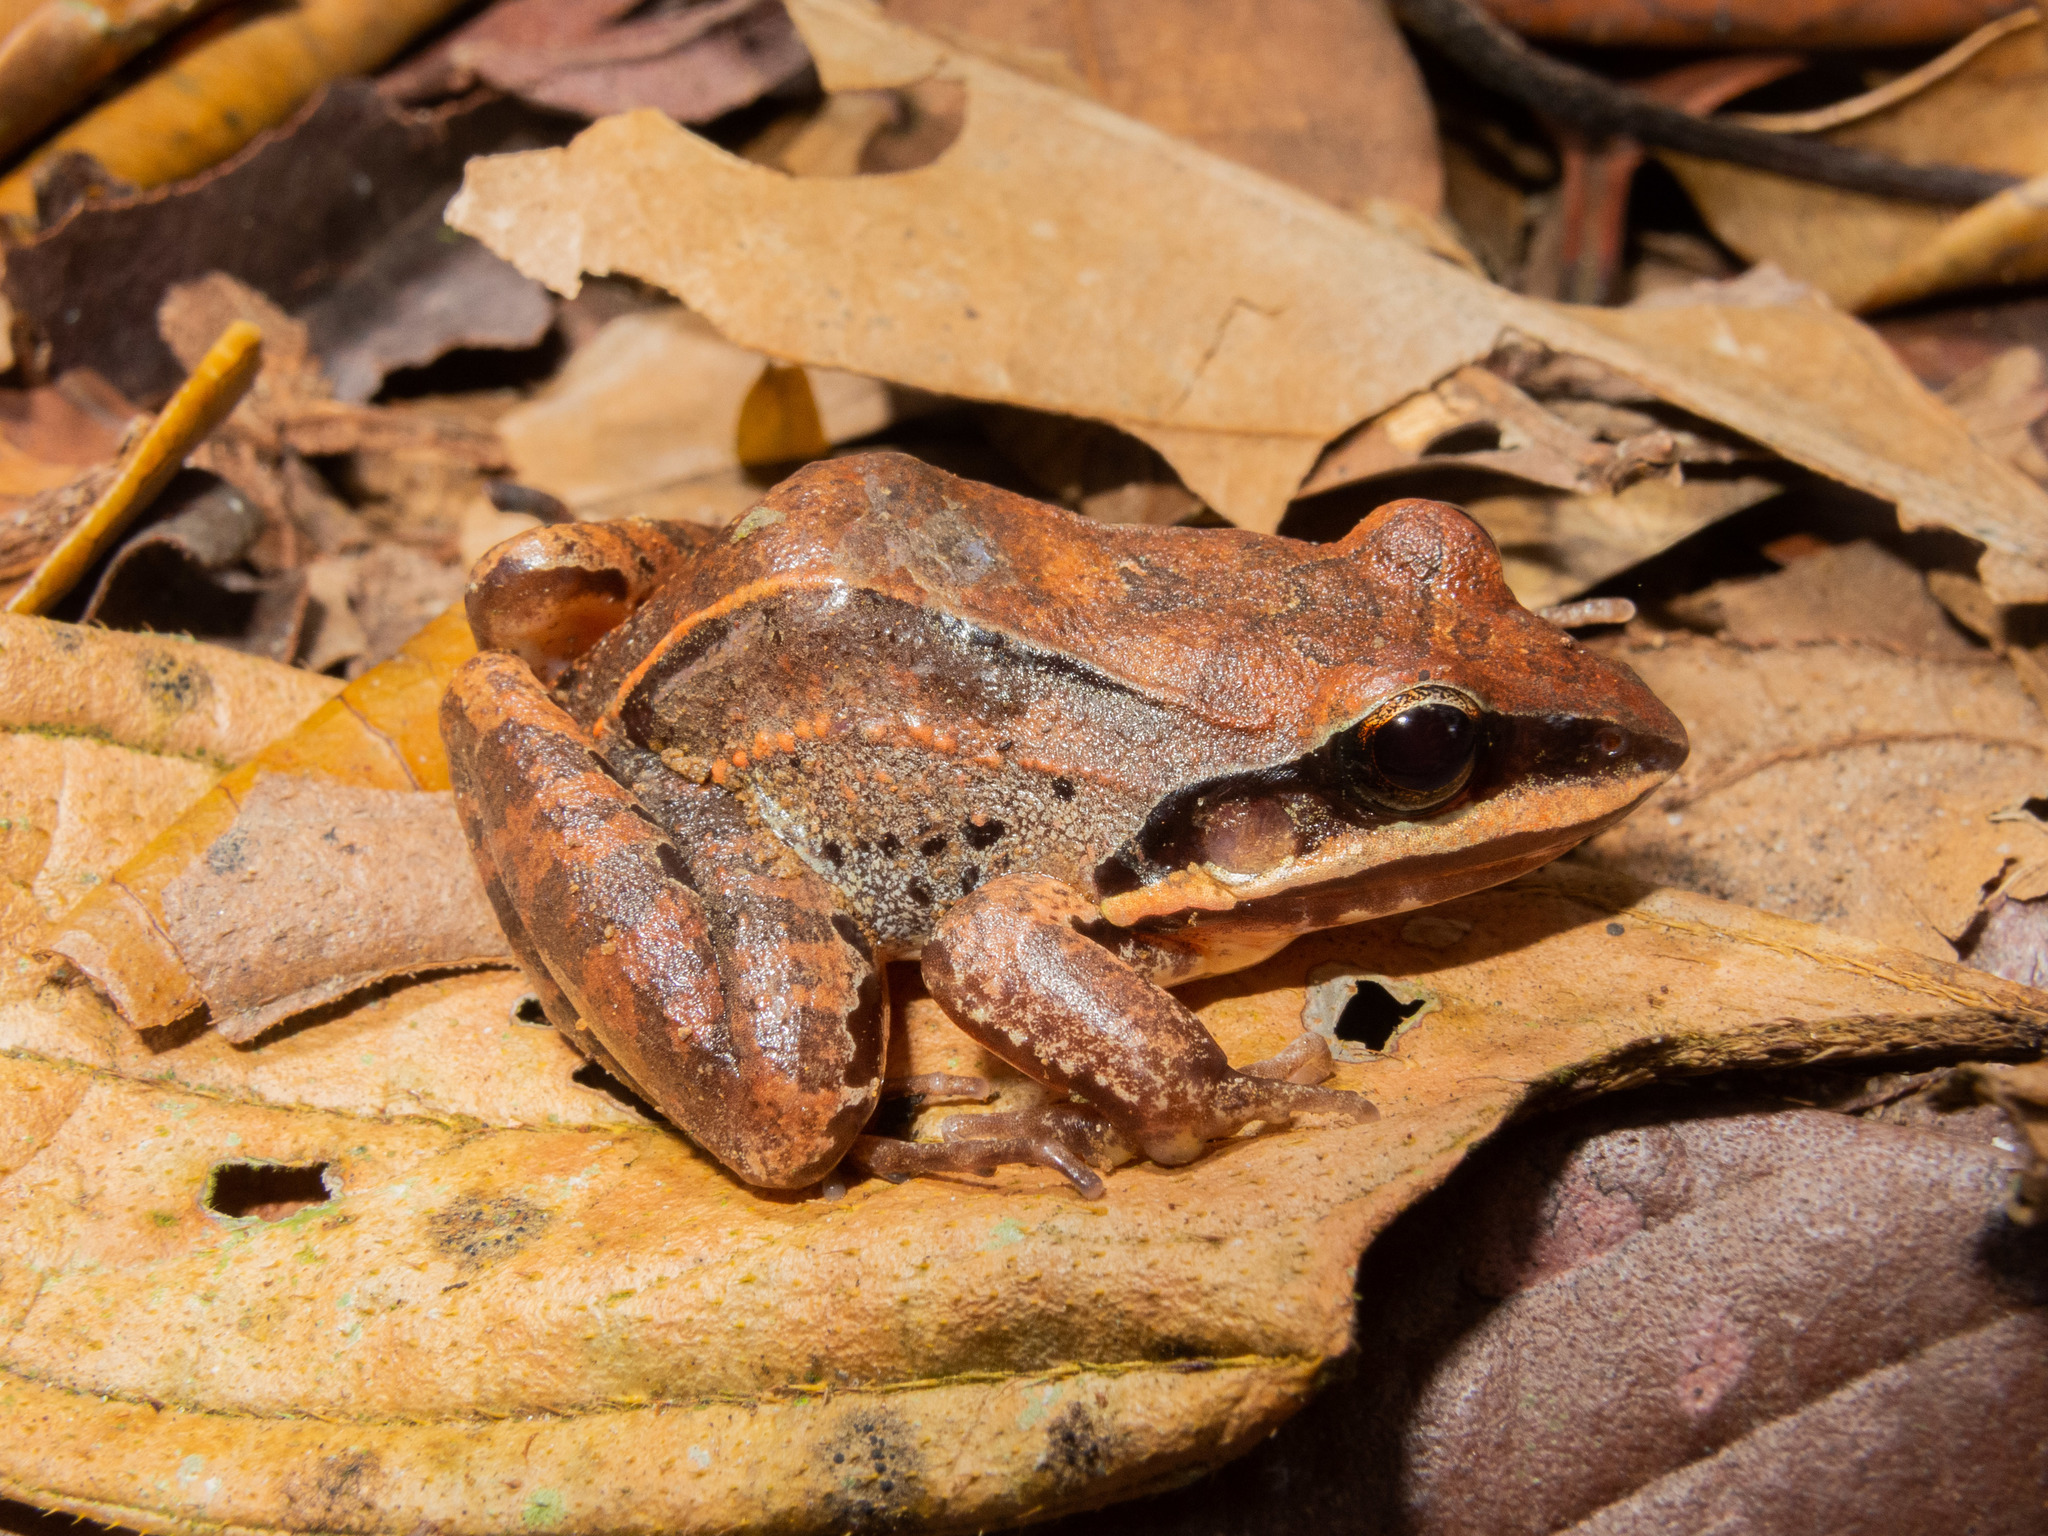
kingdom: Animalia
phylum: Chordata
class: Amphibia
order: Anura
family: Leptodactylidae
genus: Leptodactylus
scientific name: Leptodactylus mystaceus
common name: Amazonian white-lipped frog
